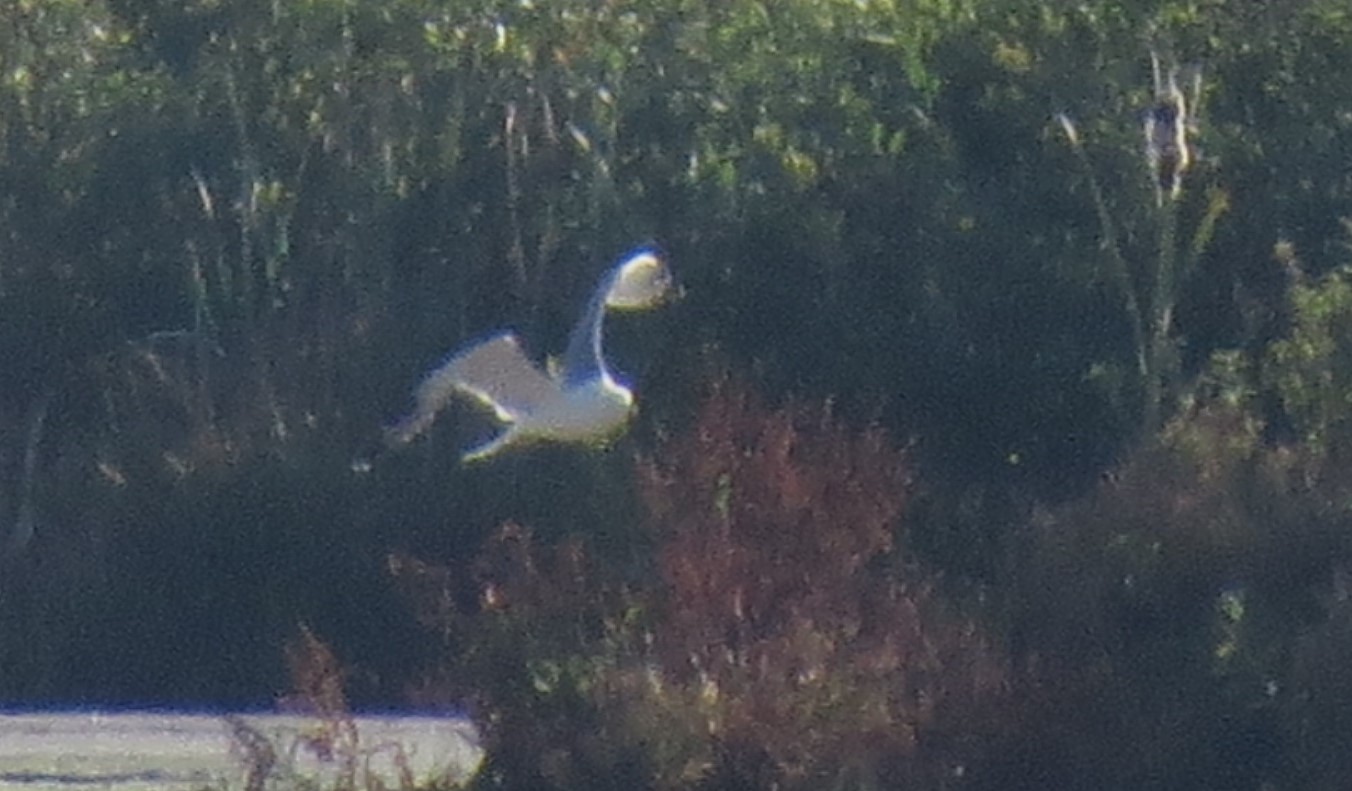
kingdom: Animalia
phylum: Chordata
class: Aves
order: Charadriiformes
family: Laridae
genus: Larus
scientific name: Larus fuscus
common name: Lesser black-backed gull
